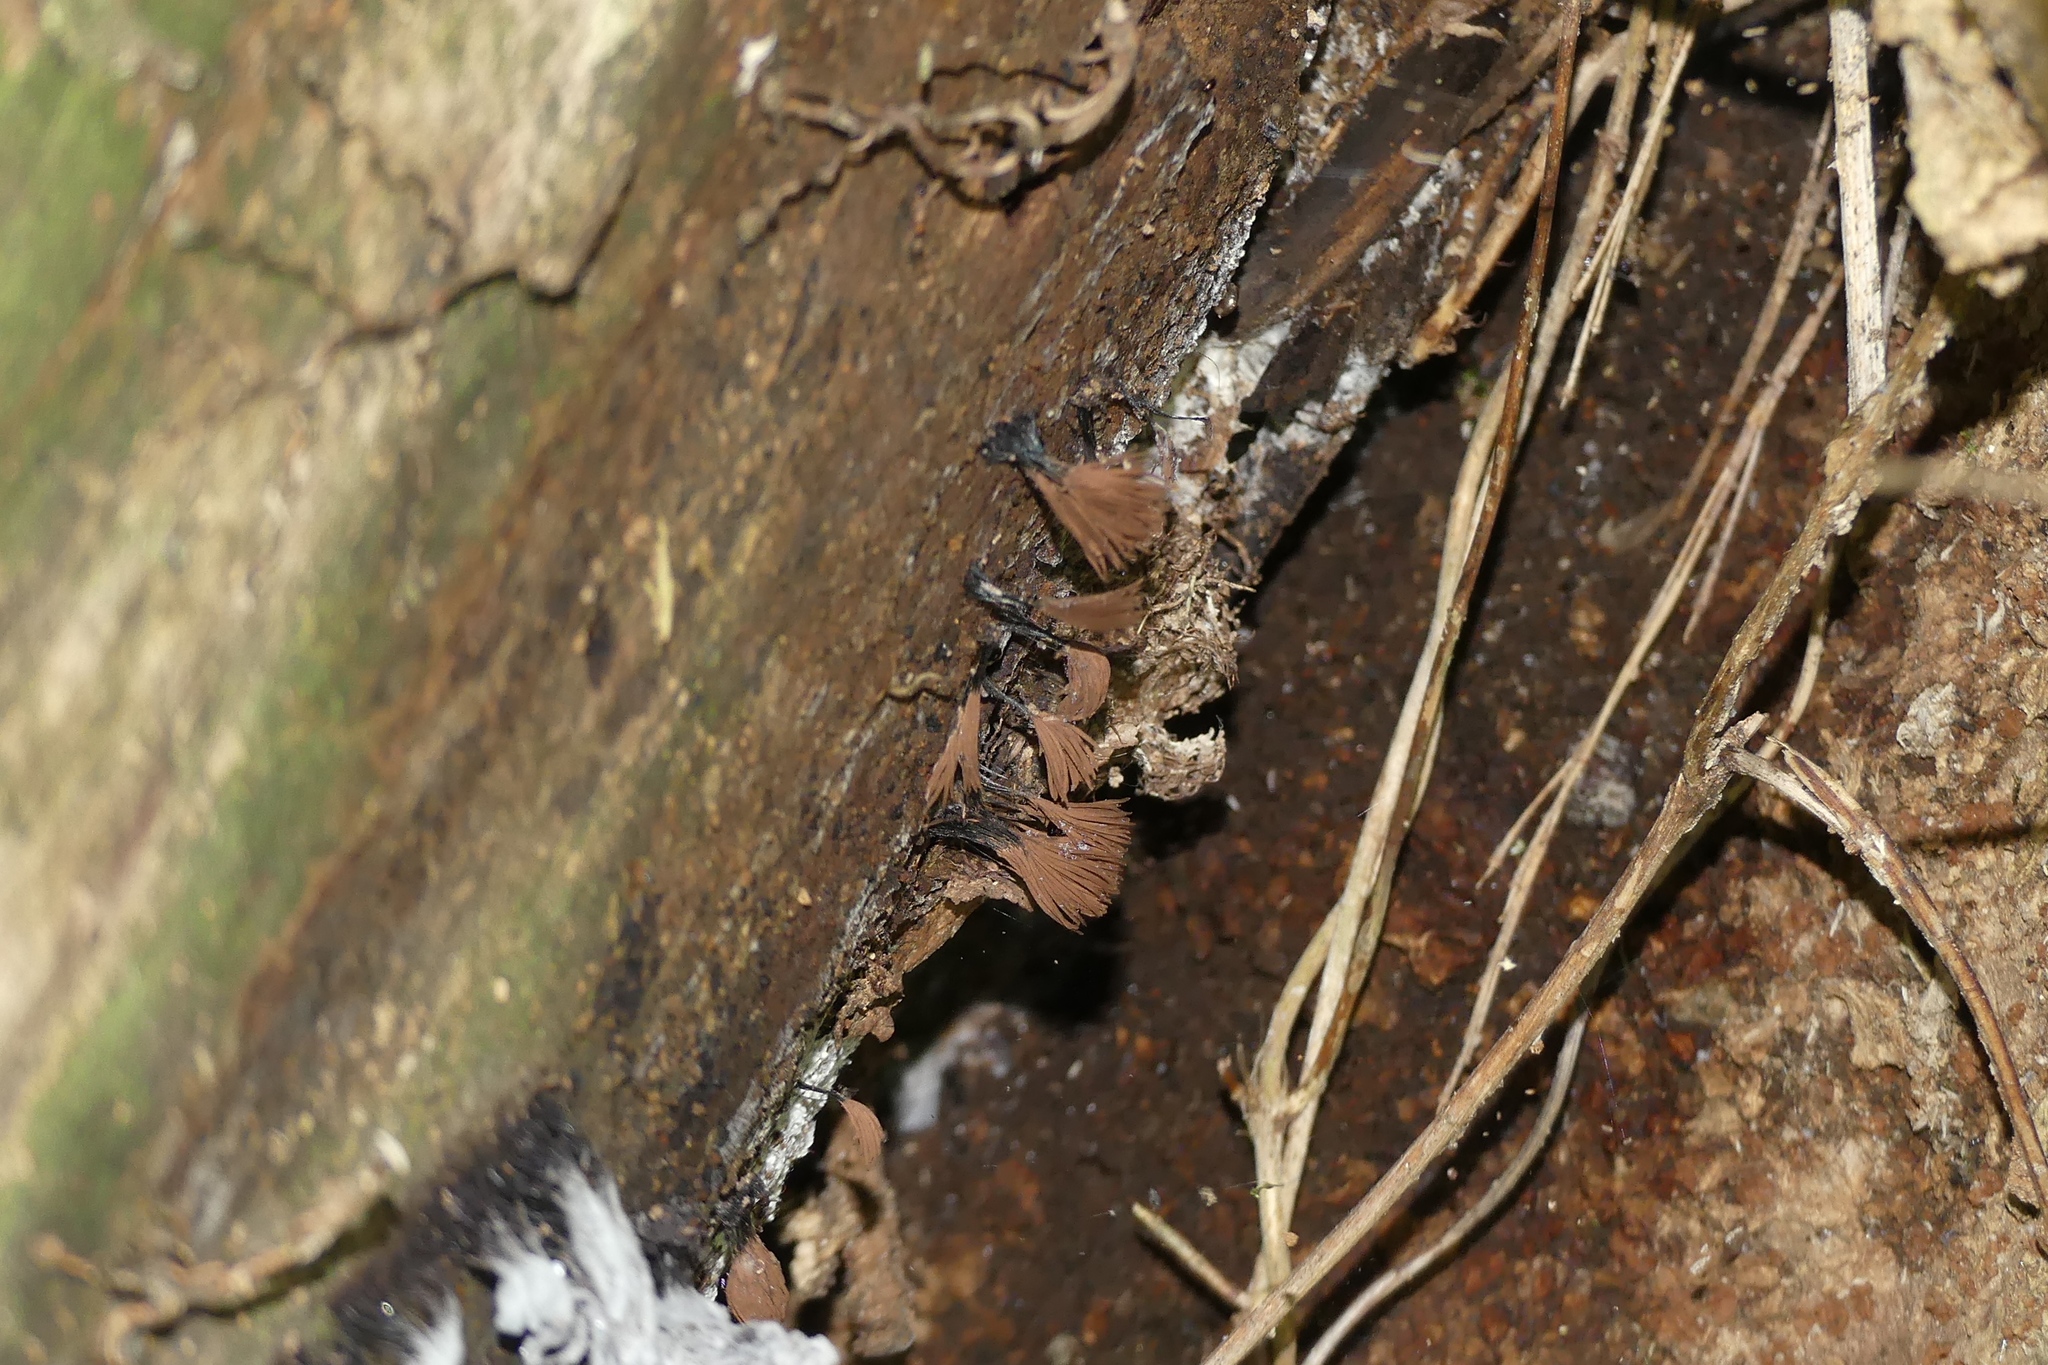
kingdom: Protozoa
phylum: Mycetozoa
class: Myxomycetes
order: Stemonitidales
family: Stemonitidaceae
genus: Stemonitis
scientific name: Stemonitis splendens
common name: Chocolate tube slime
